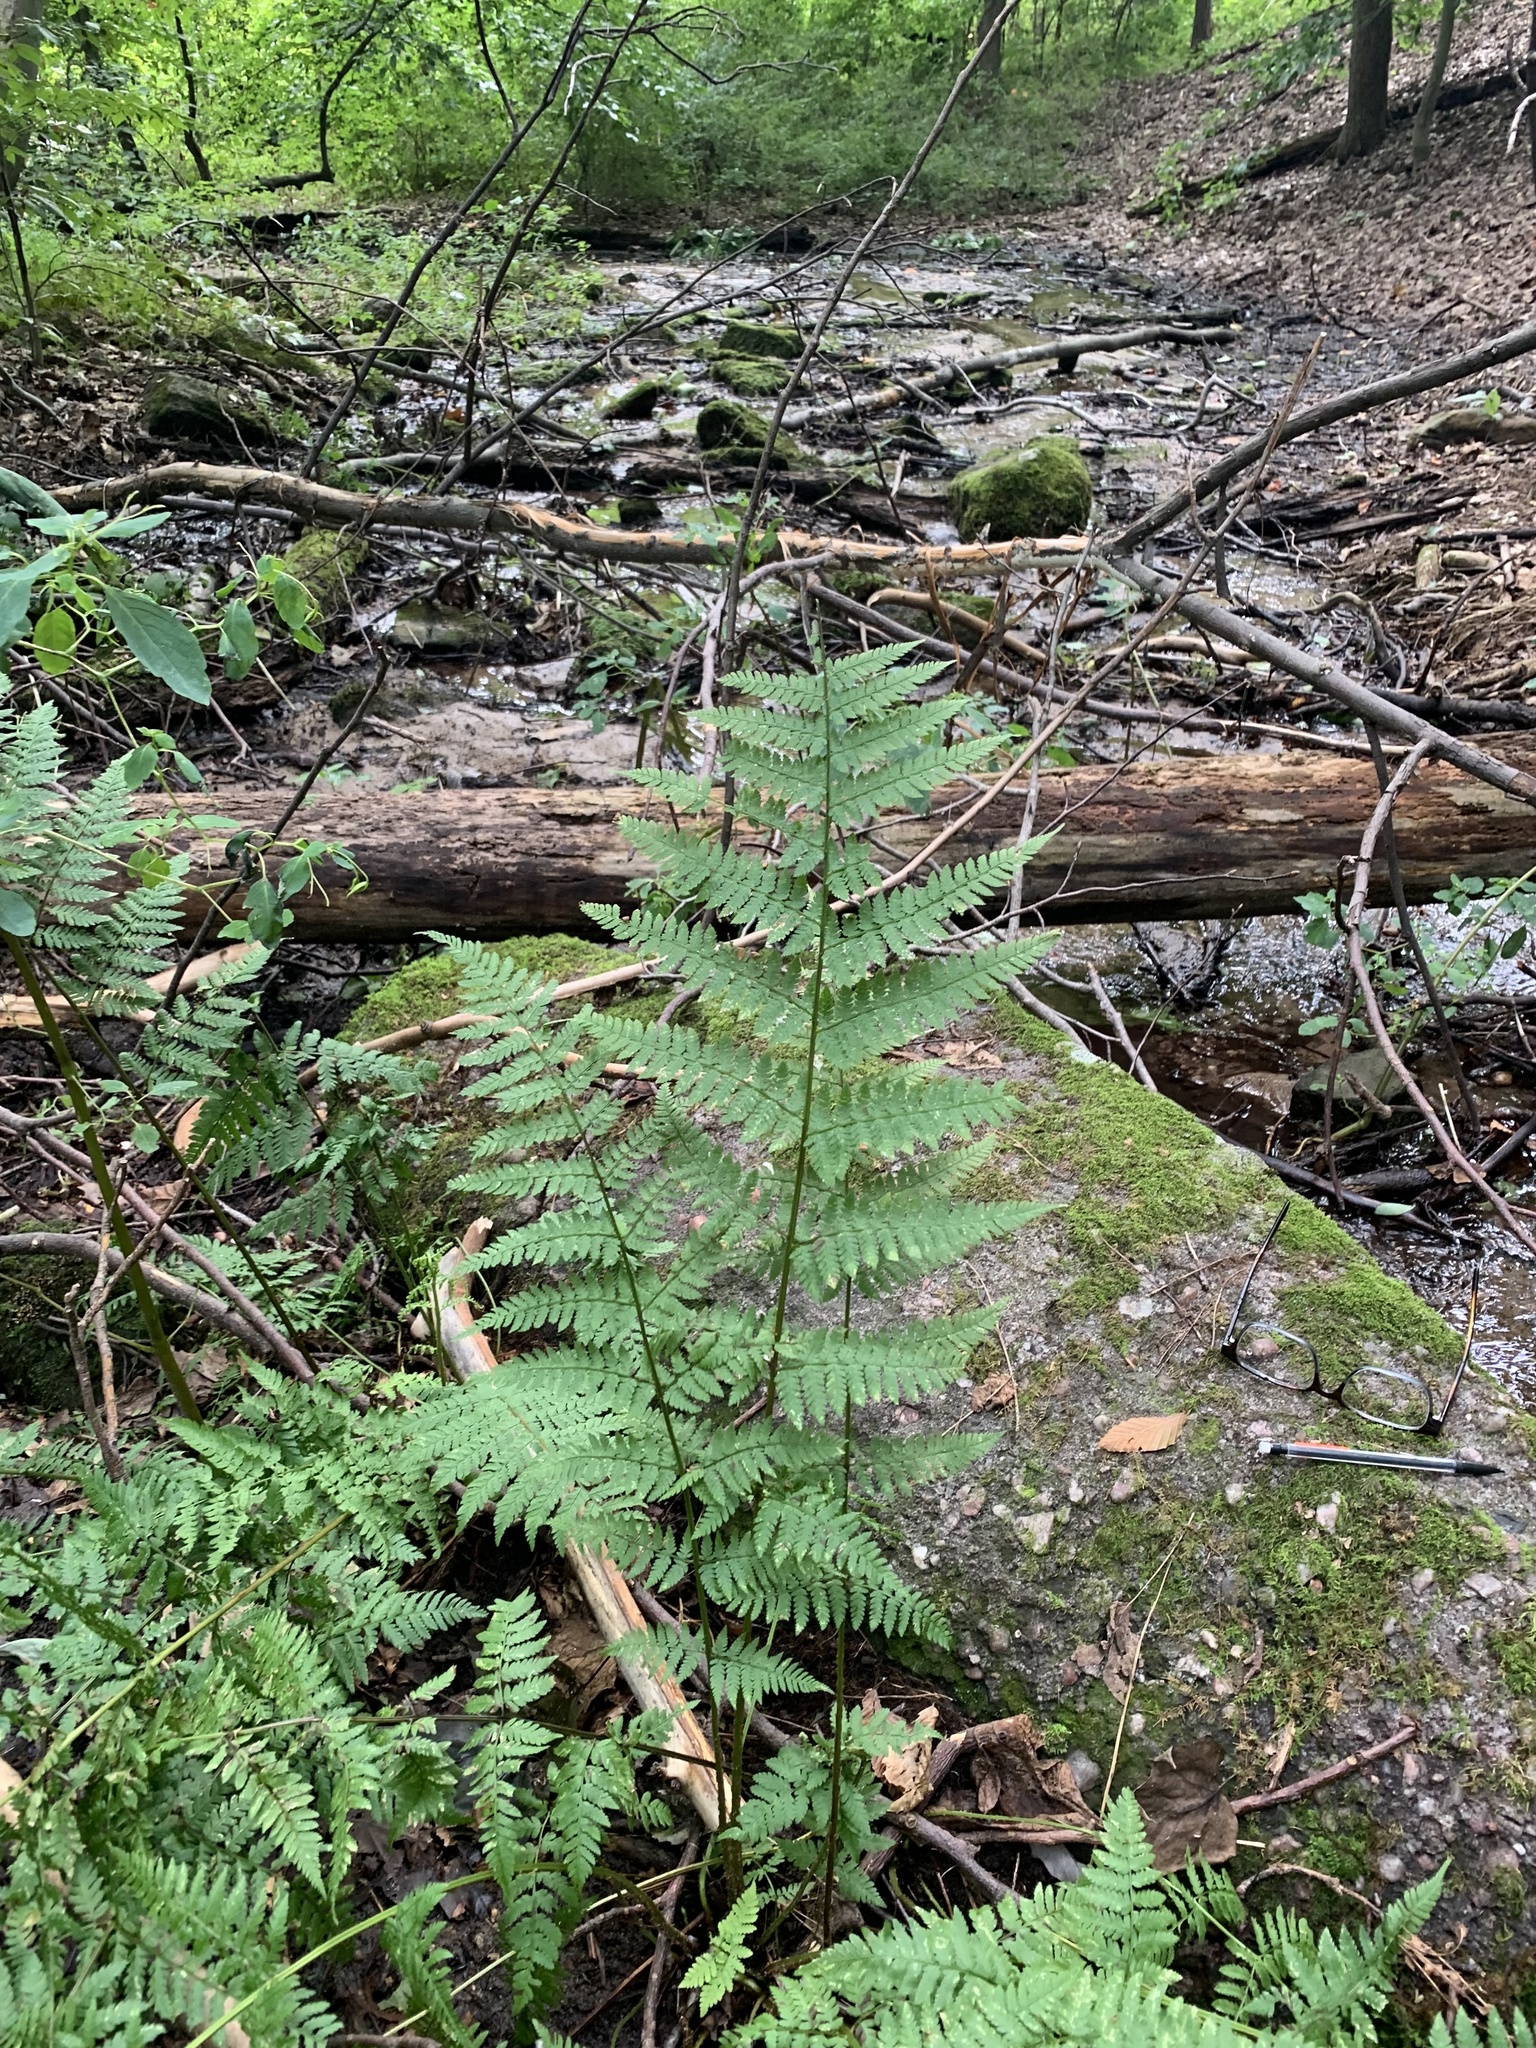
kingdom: Plantae
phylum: Tracheophyta
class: Polypodiopsida
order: Polypodiales
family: Dryopteridaceae
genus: Dryopteris
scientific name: Dryopteris triploidea
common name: Fruitful wood fern
